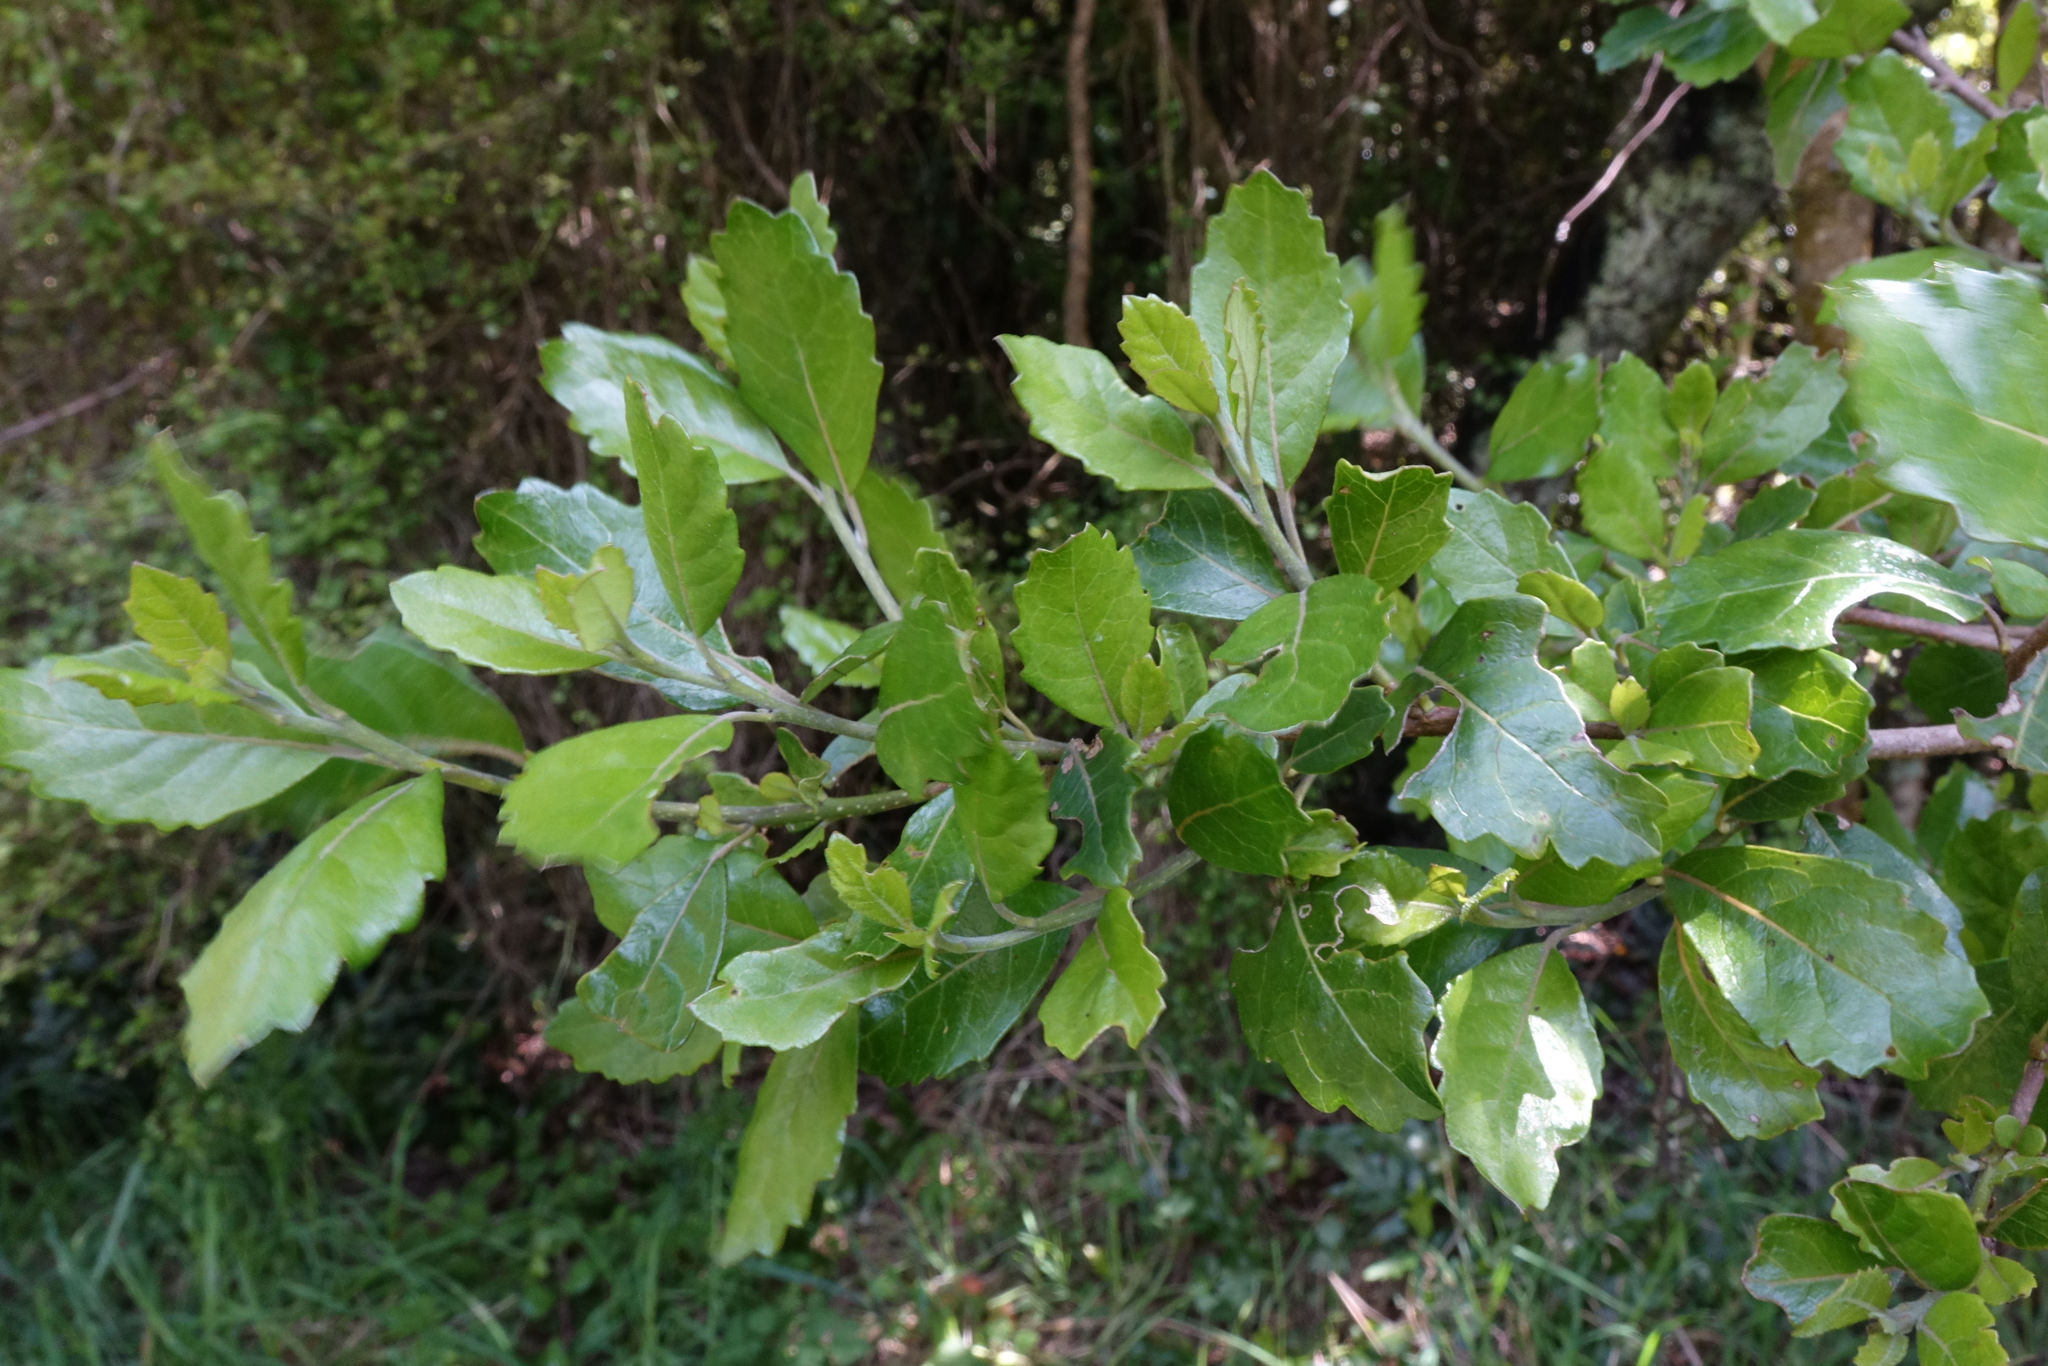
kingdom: Plantae
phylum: Tracheophyta
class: Magnoliopsida
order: Apiales
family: Pennantiaceae
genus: Pennantia
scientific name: Pennantia corymbosa
